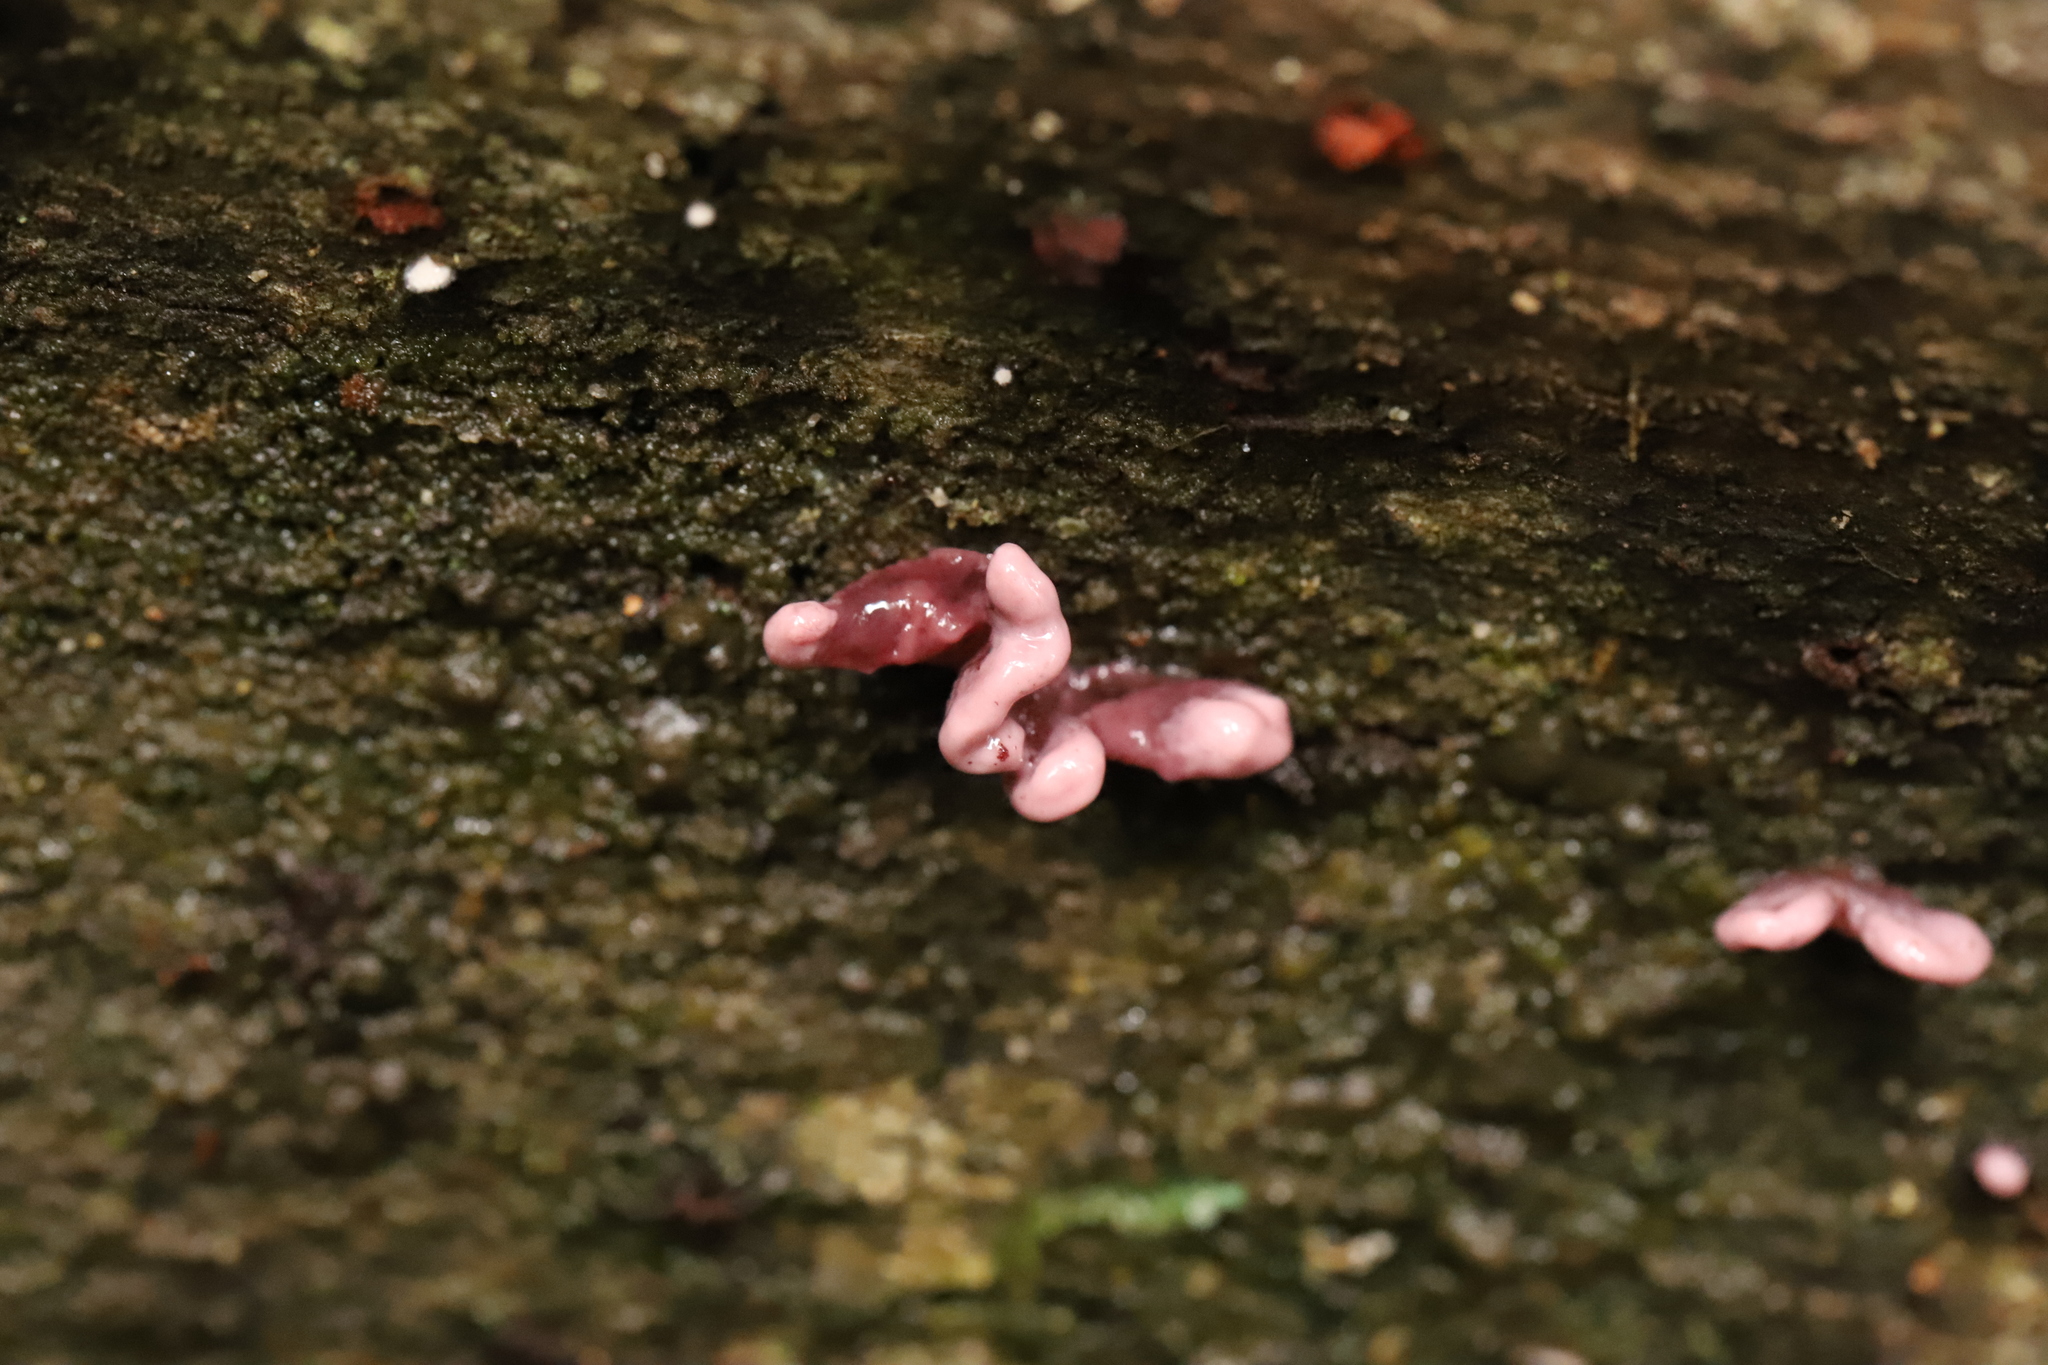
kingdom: Fungi
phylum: Ascomycota
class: Leotiomycetes
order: Helotiales
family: Gelatinodiscaceae
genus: Ascocoryne
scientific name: Ascocoryne sarcoides
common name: Purple jellydisc
